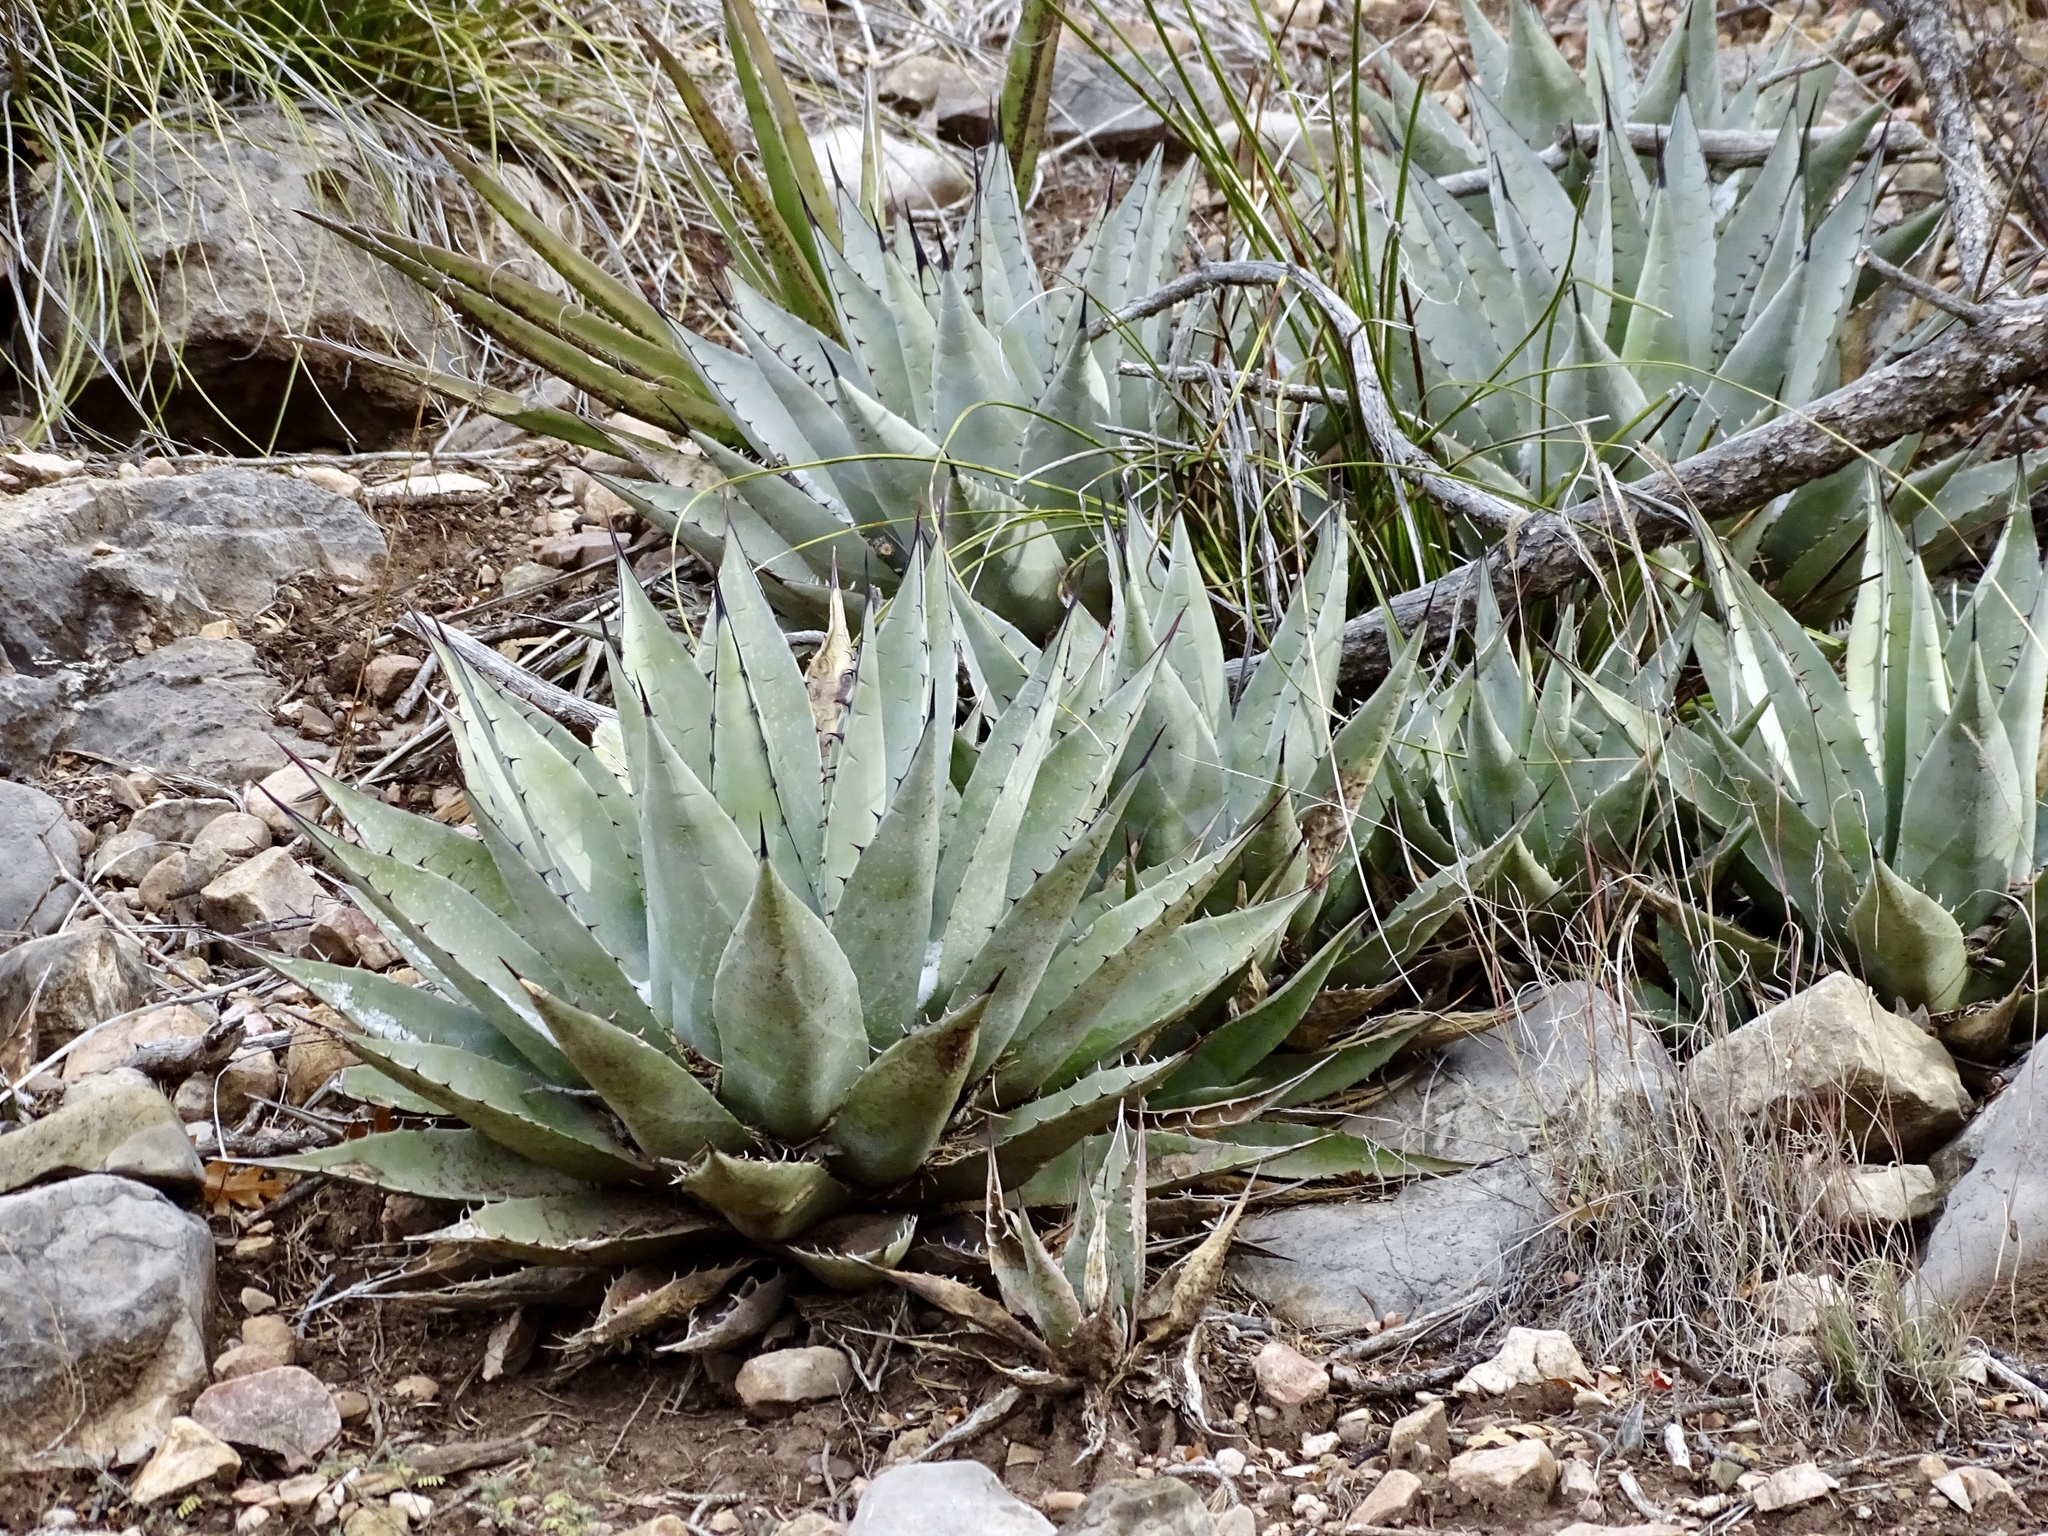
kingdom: Plantae
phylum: Tracheophyta
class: Liliopsida
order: Asparagales
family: Asparagaceae
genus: Agave
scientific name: Agave parryi
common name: Parry's agave
